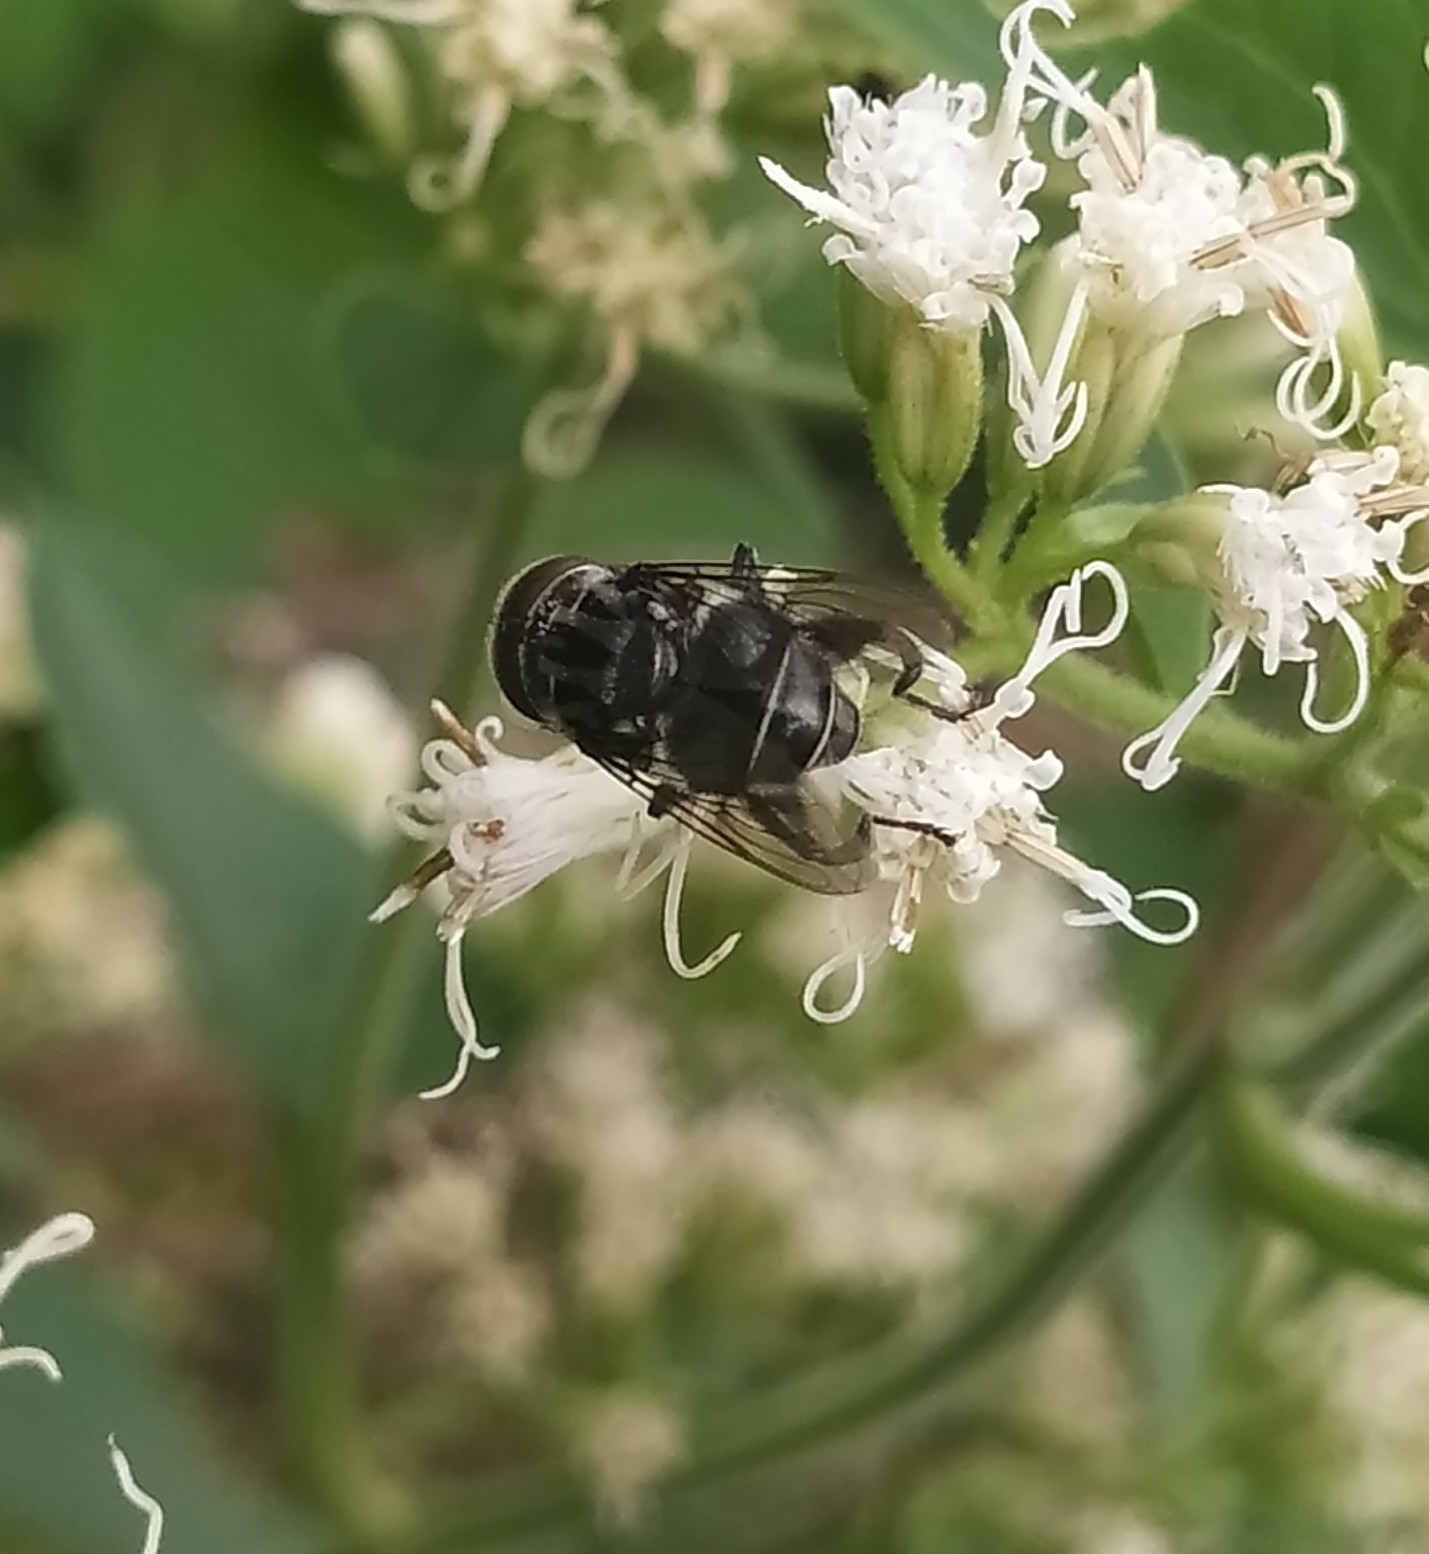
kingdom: Animalia
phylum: Arthropoda
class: Insecta
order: Diptera
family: Syrphidae
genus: Palpada
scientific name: Palpada furcata
